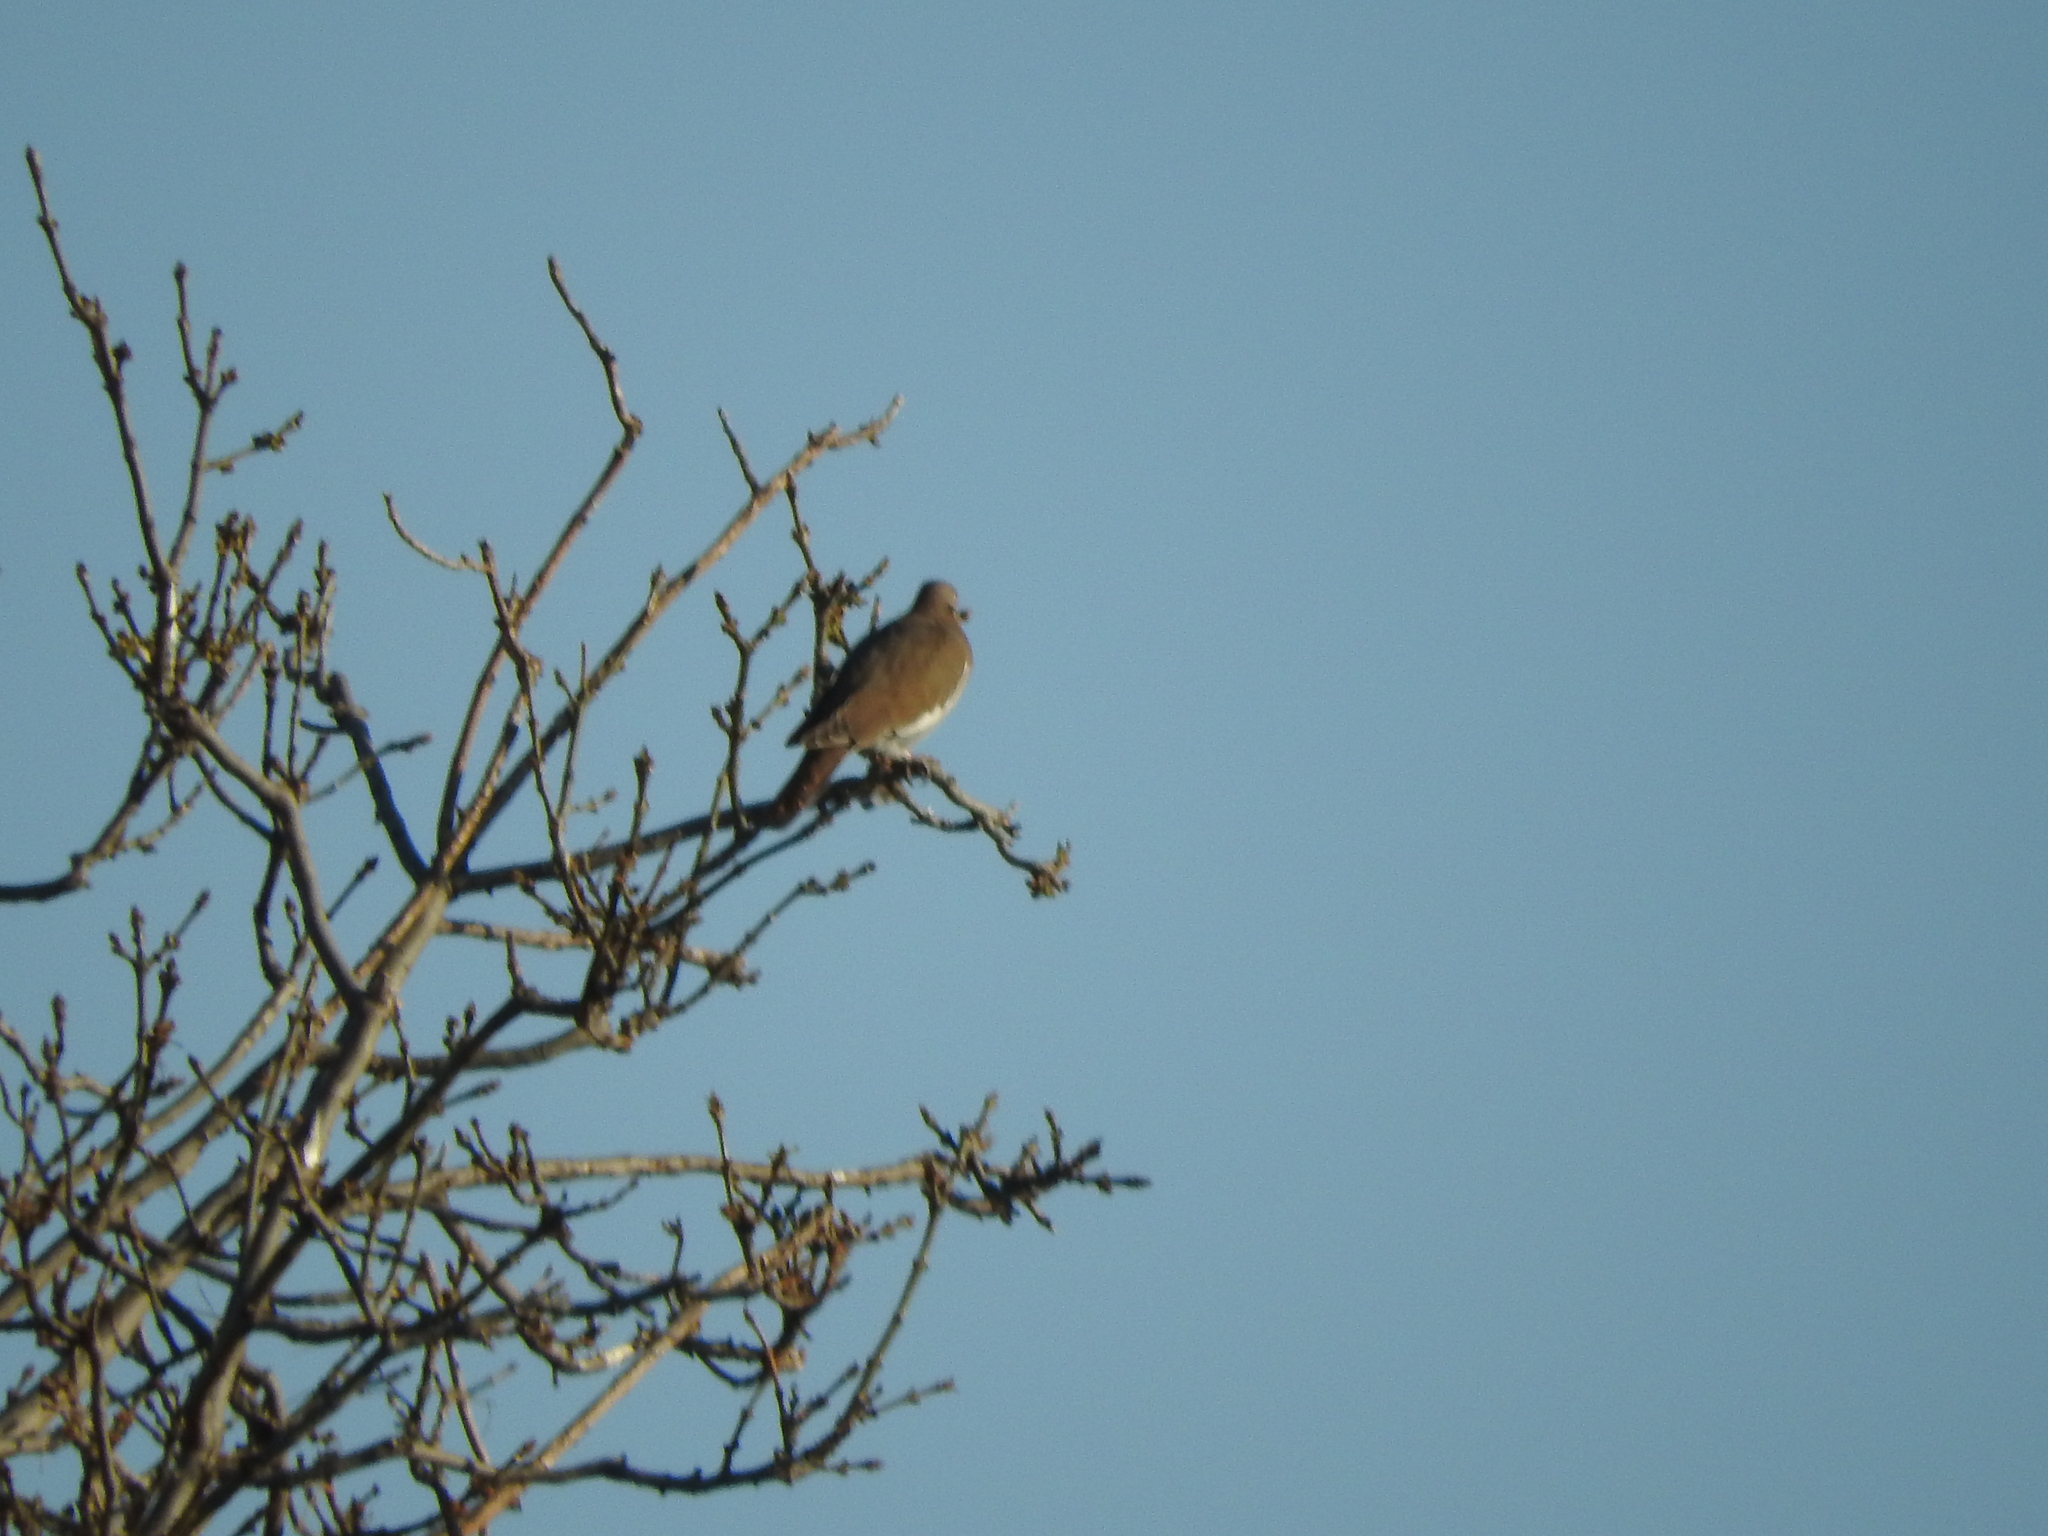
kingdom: Animalia
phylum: Chordata
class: Aves
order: Columbiformes
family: Columbidae
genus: Zenaida
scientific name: Zenaida asiatica
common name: White-winged dove
